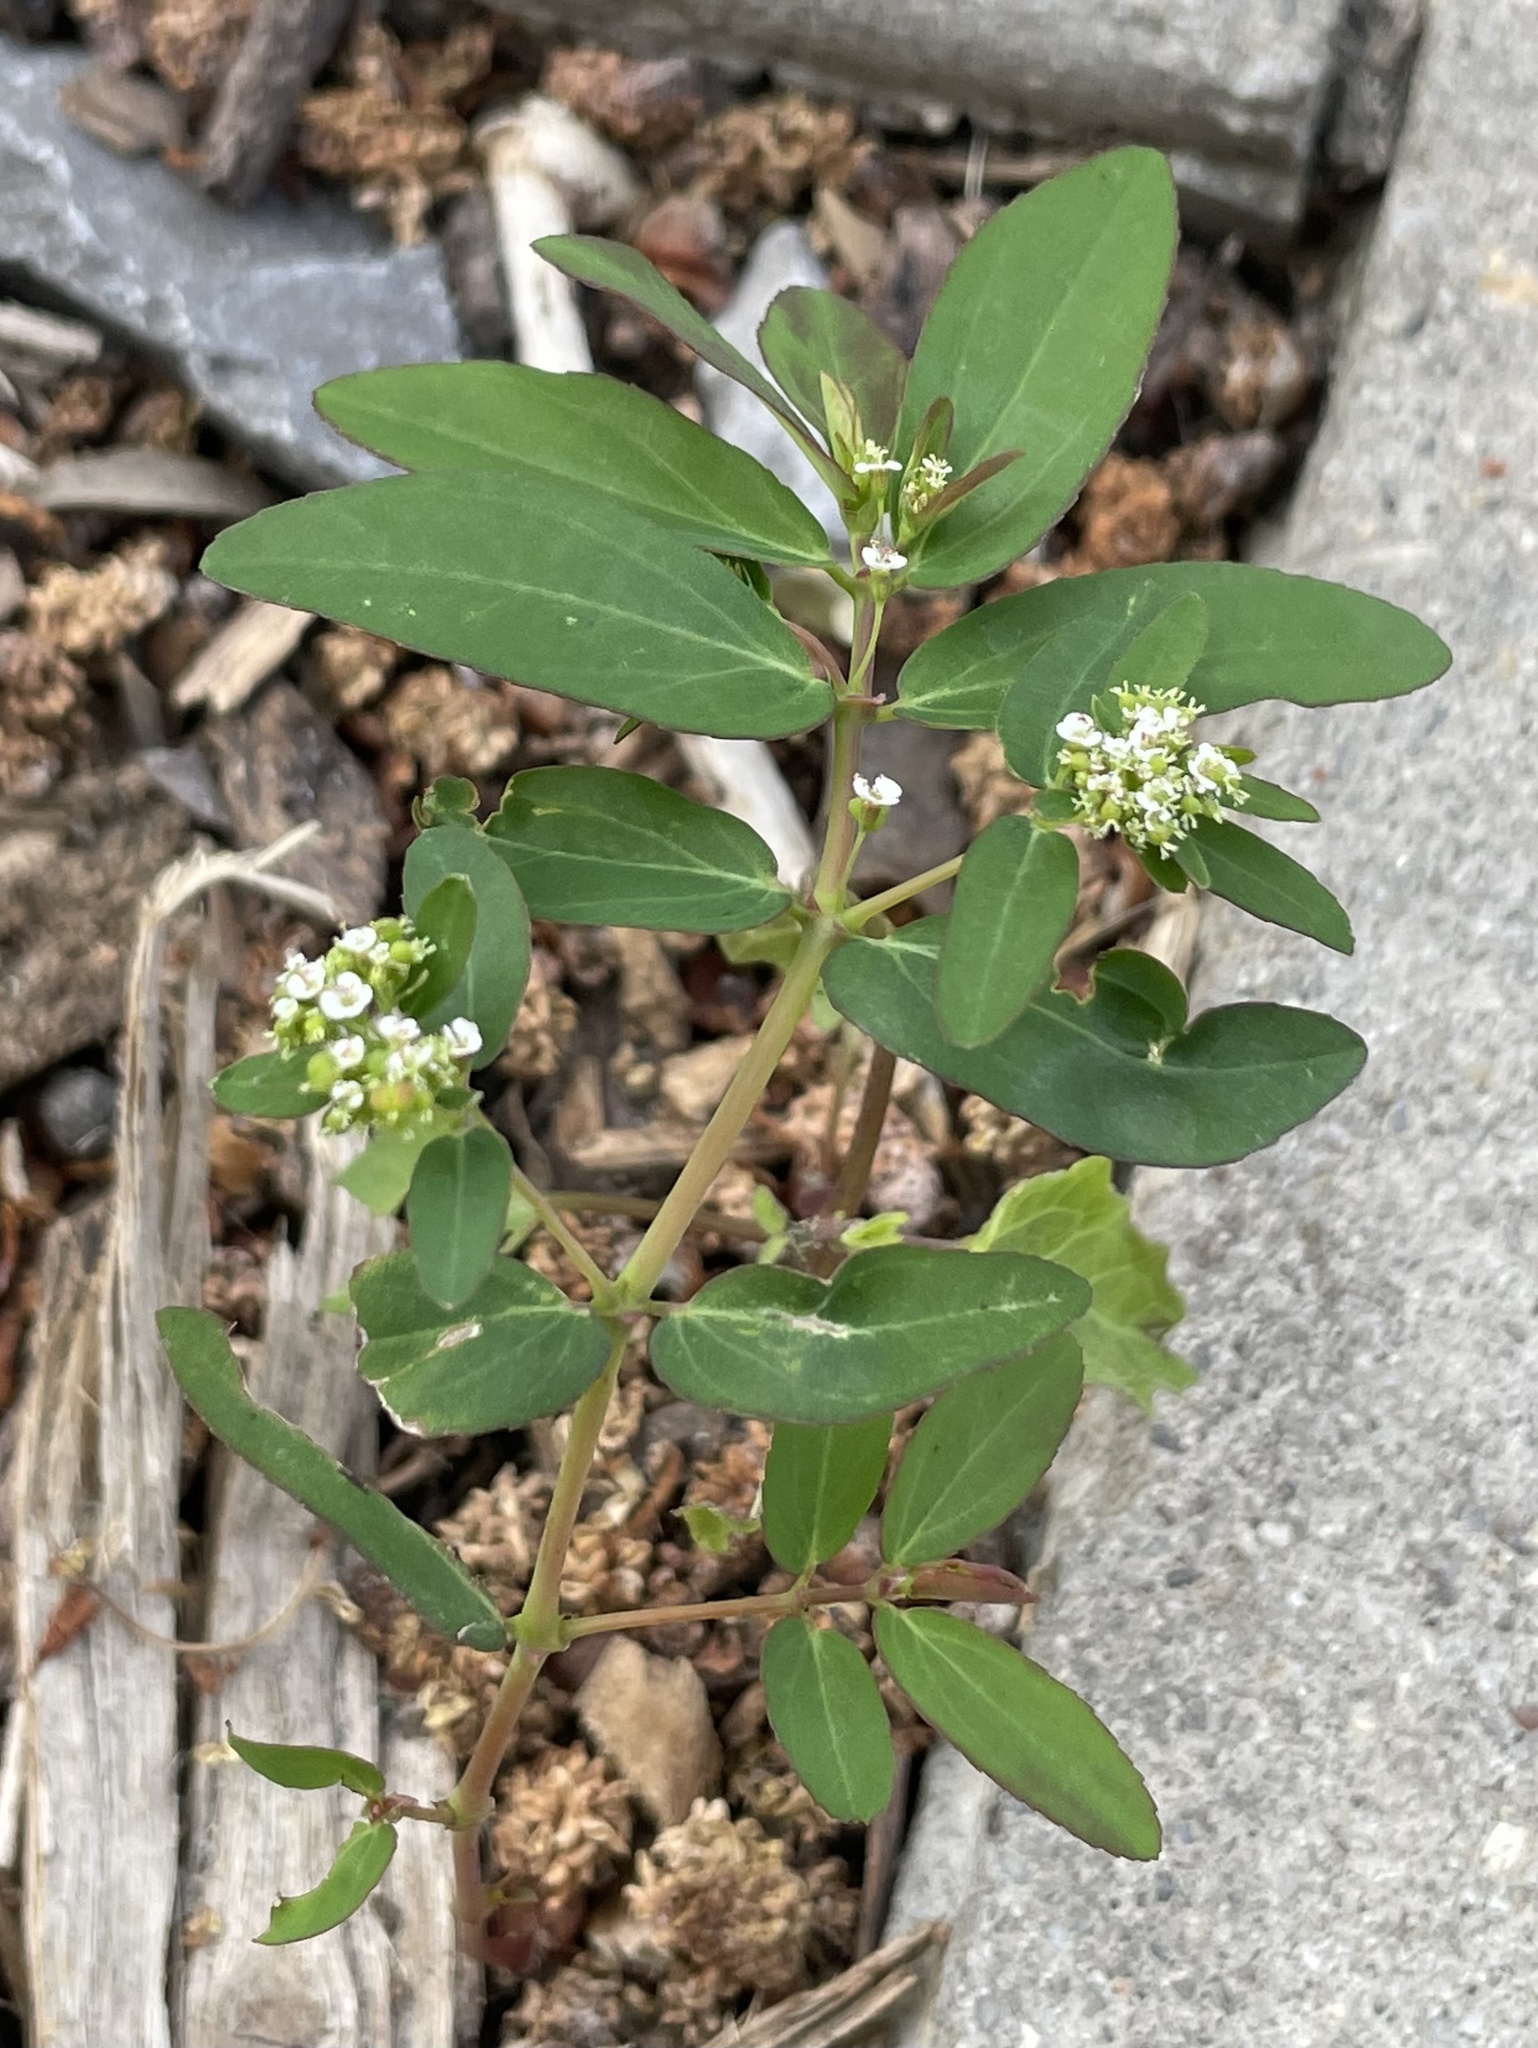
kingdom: Plantae
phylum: Tracheophyta
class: Magnoliopsida
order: Malpighiales
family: Euphorbiaceae
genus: Euphorbia
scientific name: Euphorbia hypericifolia
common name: Graceful sandmat
